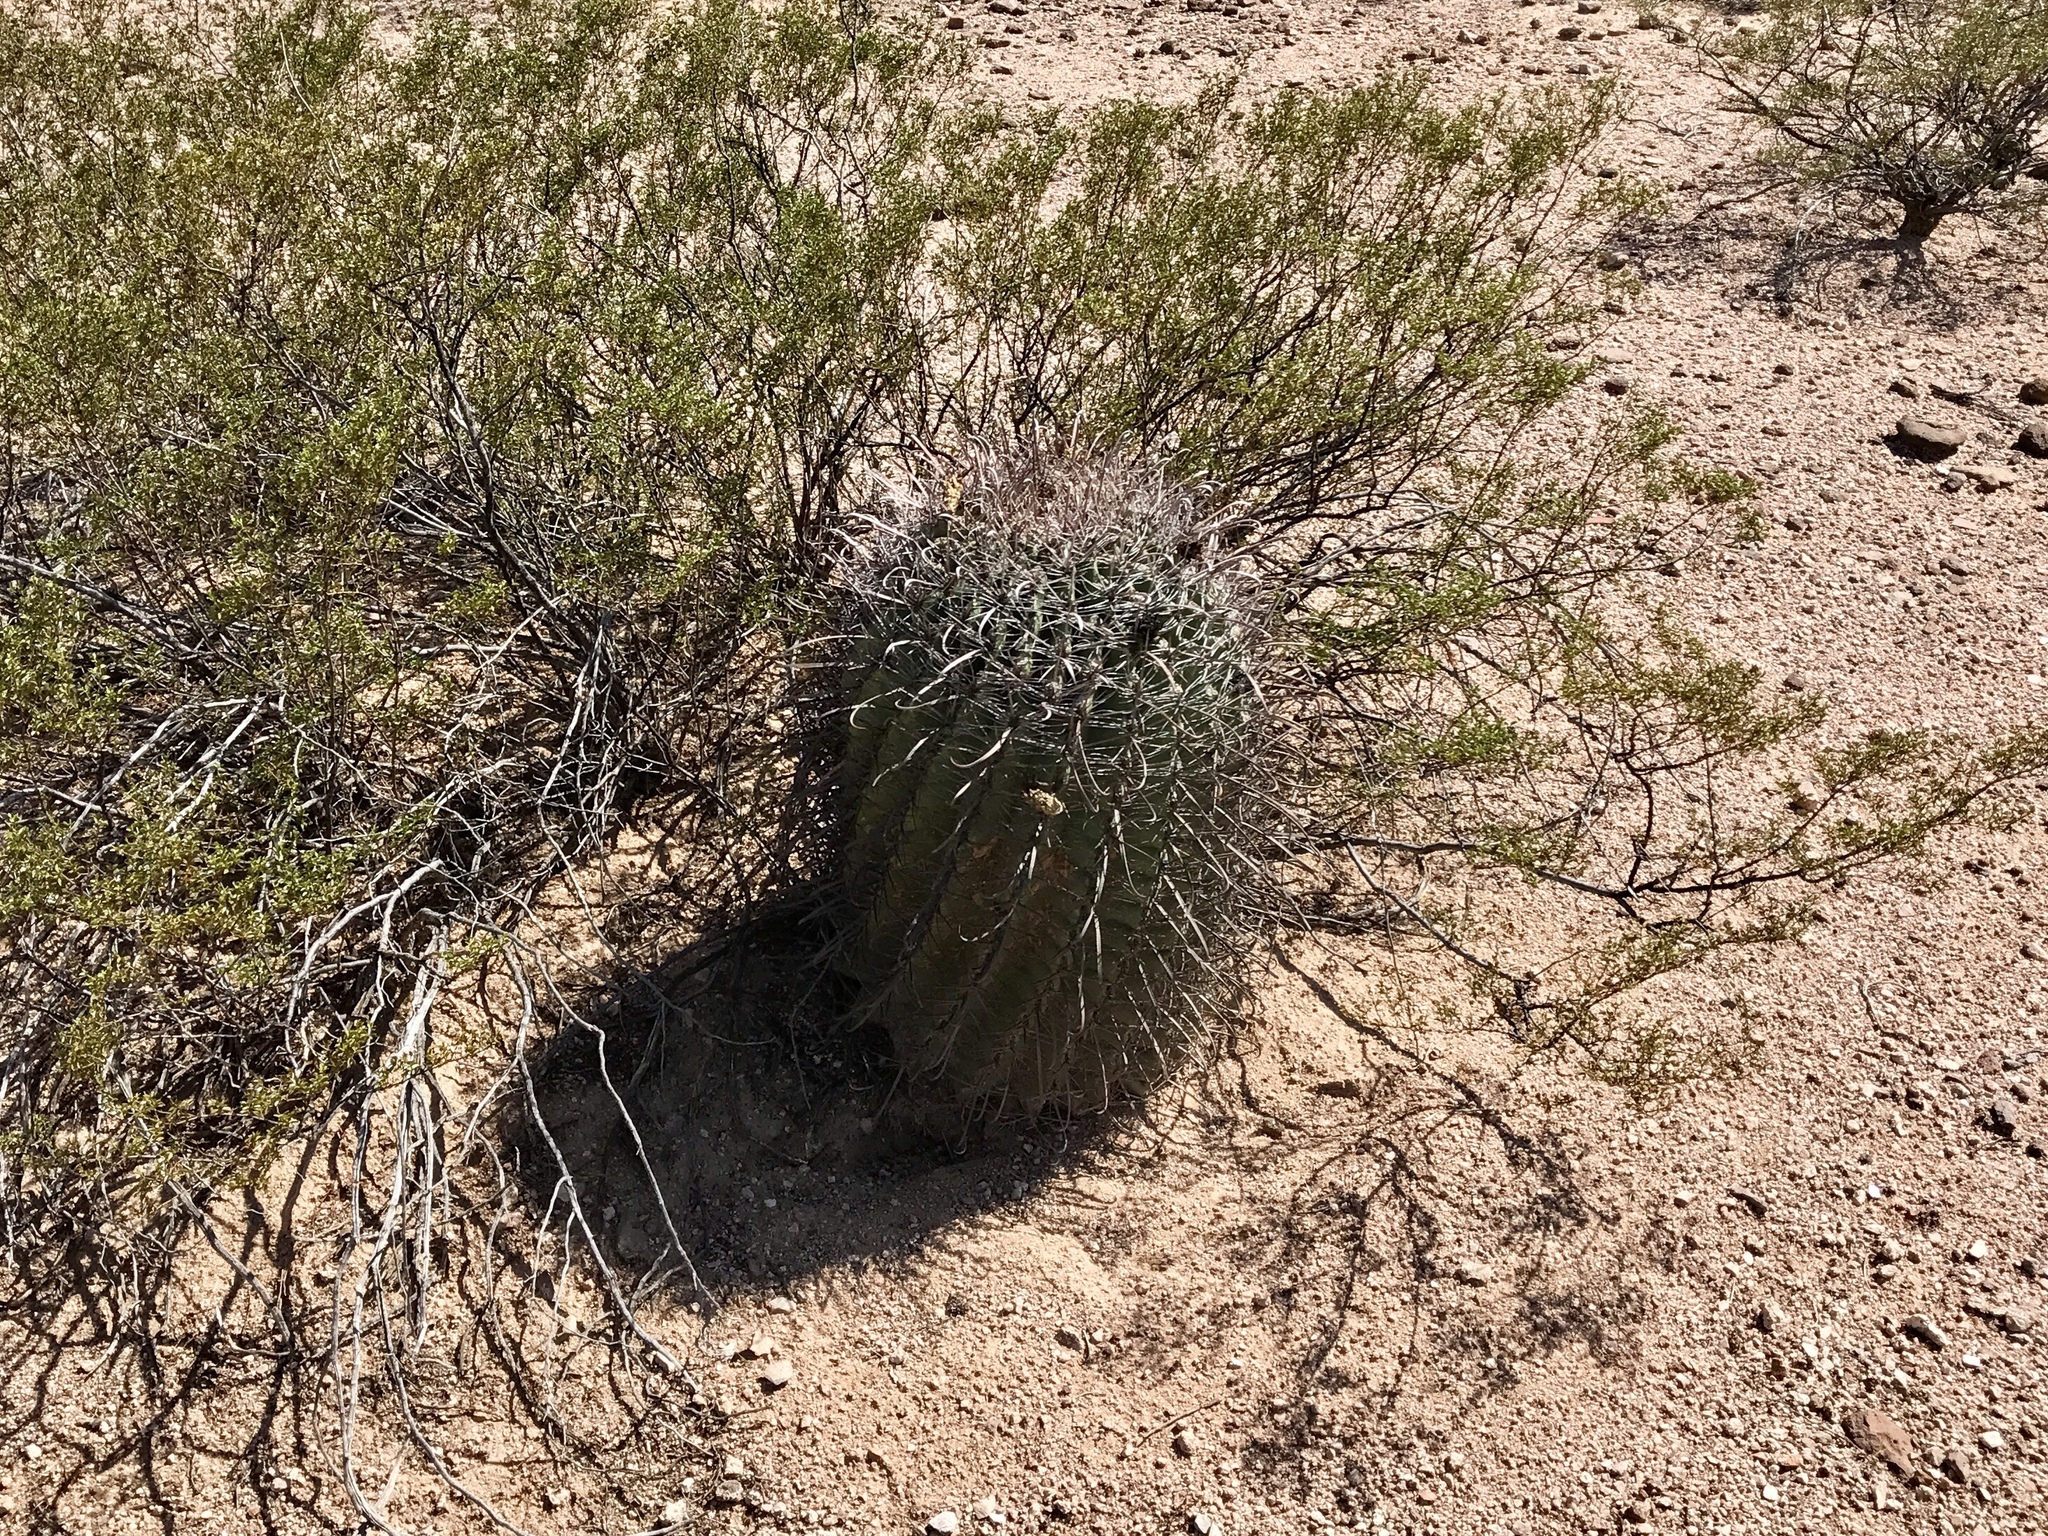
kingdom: Plantae
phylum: Tracheophyta
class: Magnoliopsida
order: Caryophyllales
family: Cactaceae
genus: Ferocactus
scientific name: Ferocactus wislizeni
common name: Candy barrel cactus
